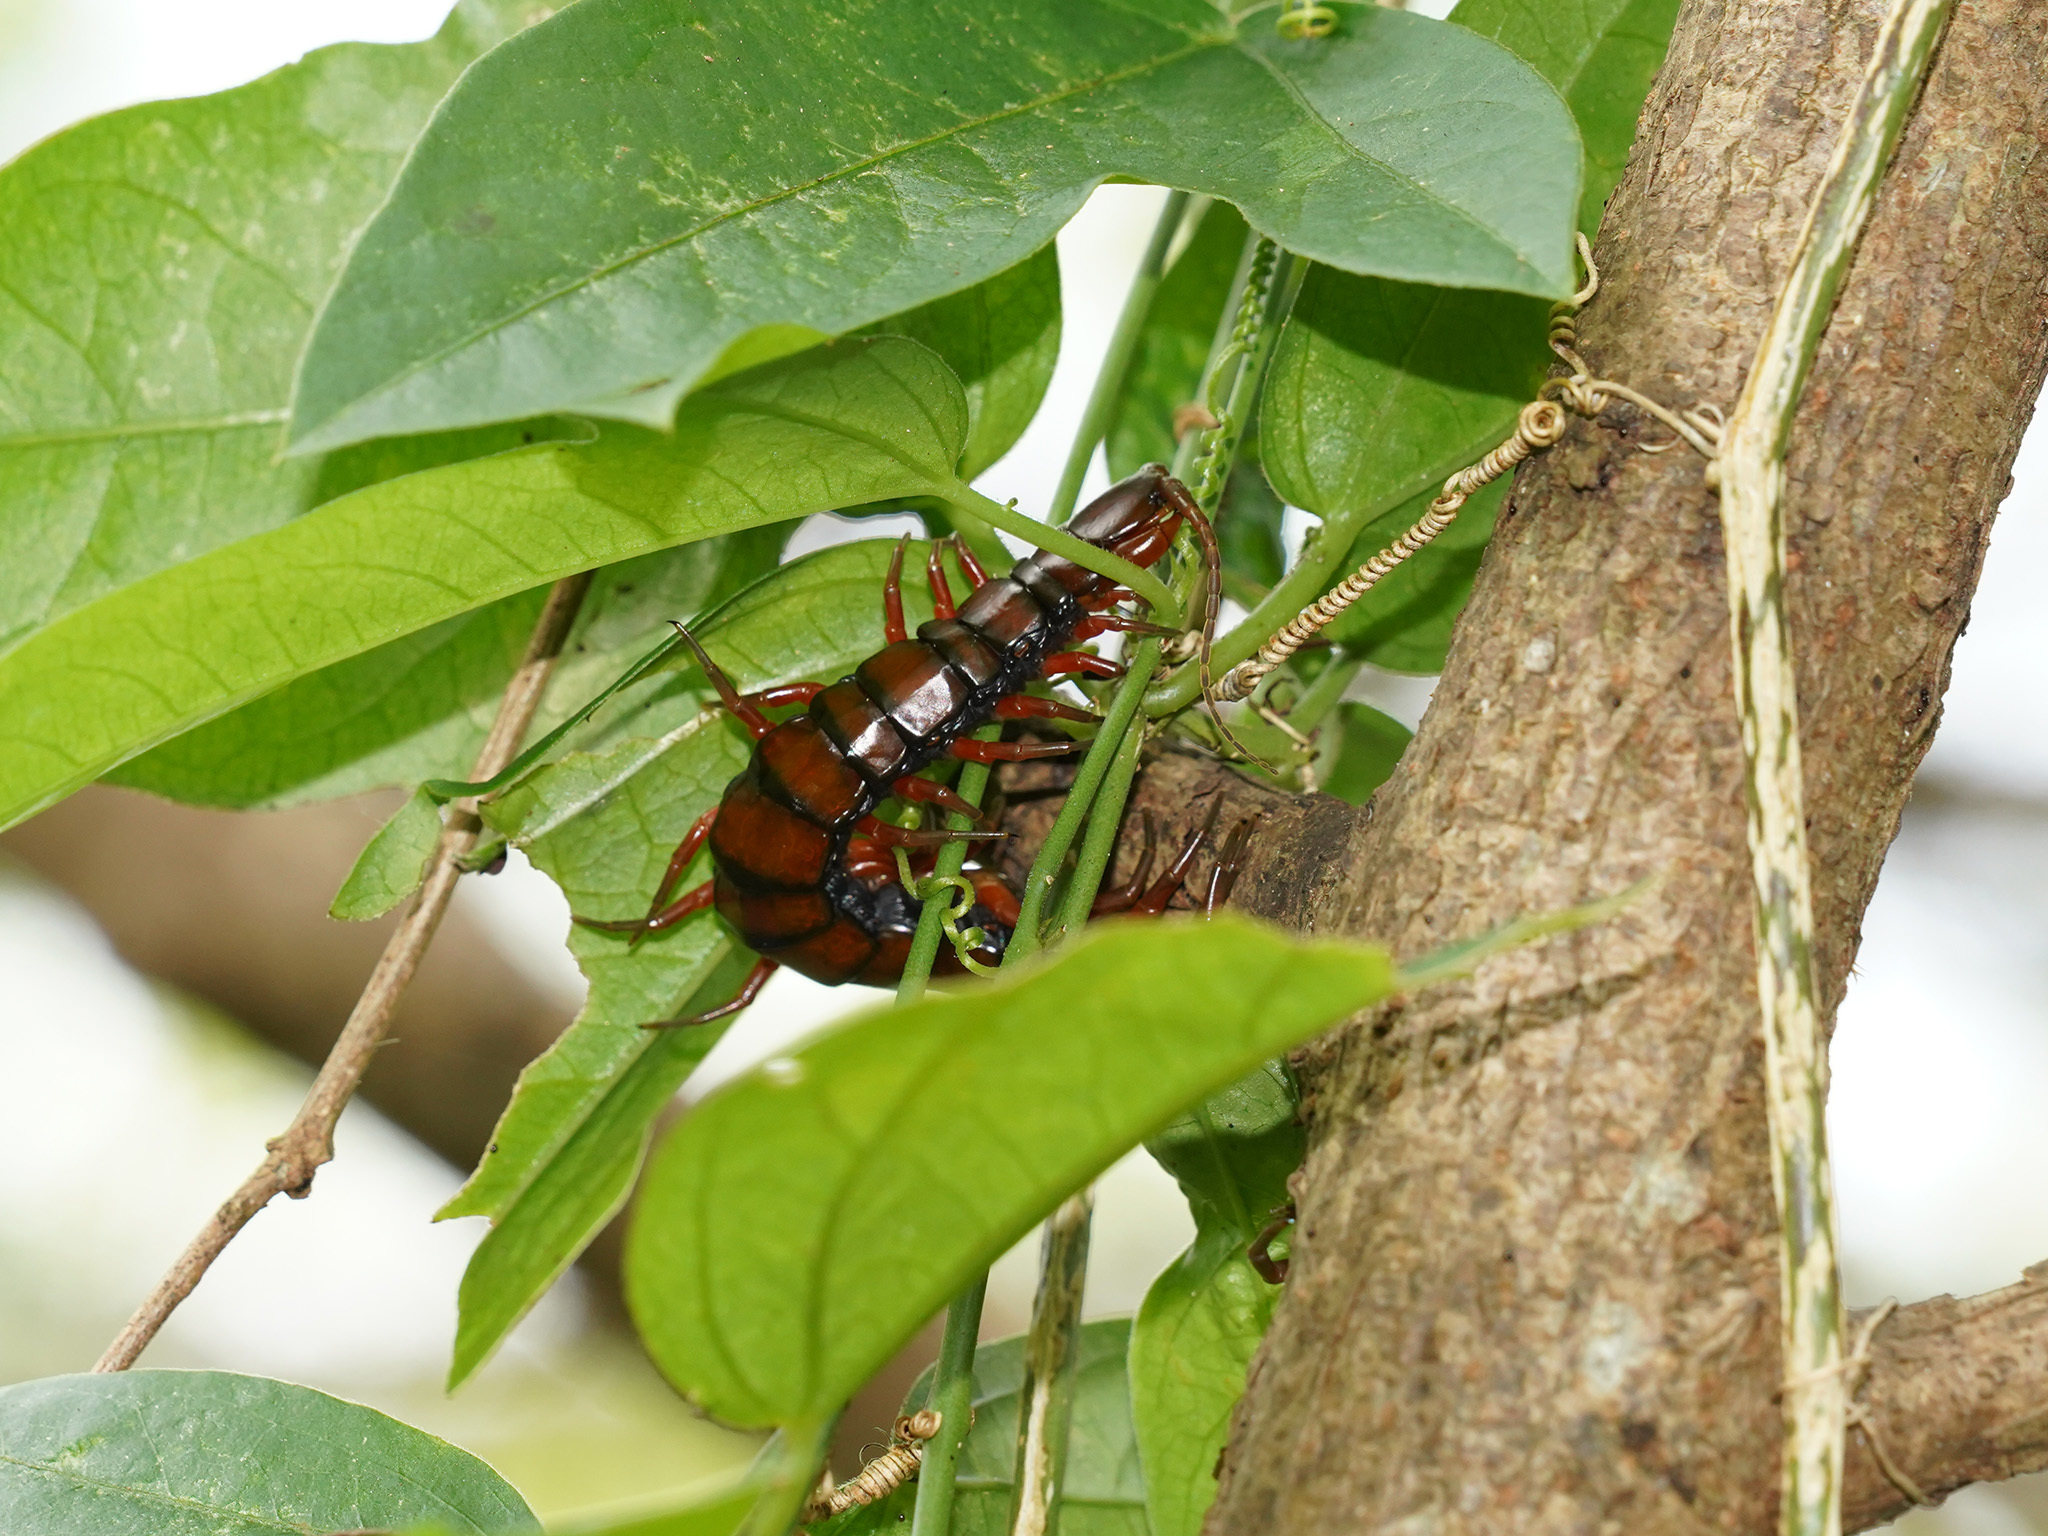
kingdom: Animalia
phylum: Arthropoda
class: Chilopoda
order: Scolopendromorpha
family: Scolopendridae
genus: Scolopendra
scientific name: Scolopendra subspinipes
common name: Centipede
